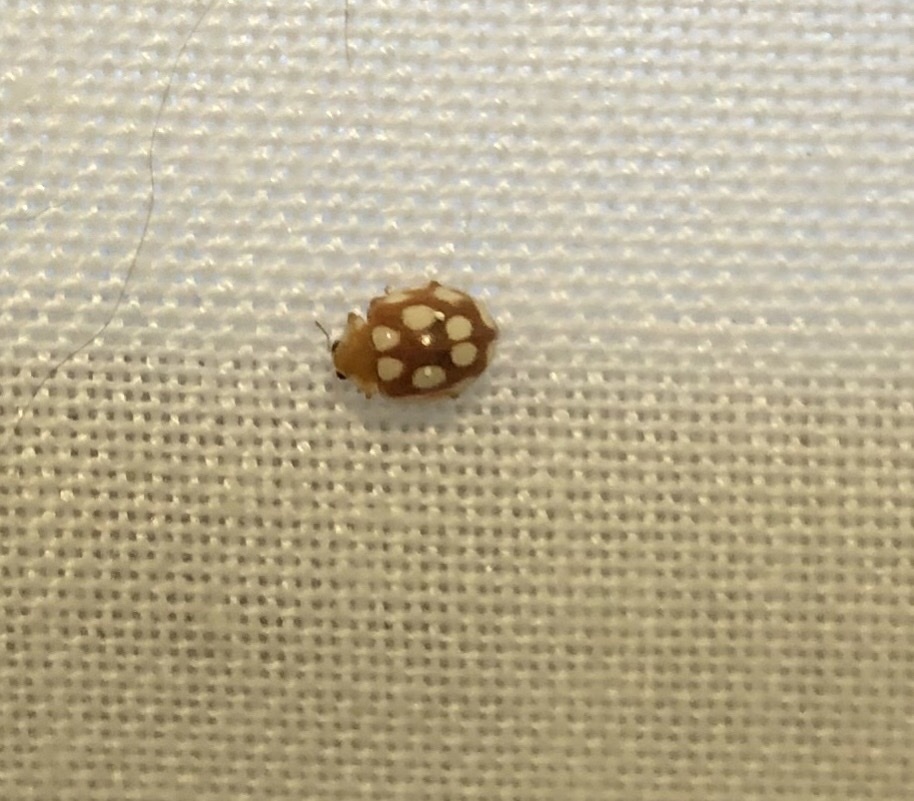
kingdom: Animalia
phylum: Arthropoda
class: Insecta
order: Coleoptera
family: Coccinellidae
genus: Vibidia
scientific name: Vibidia duodecimguttata
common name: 12-spot ladybird
